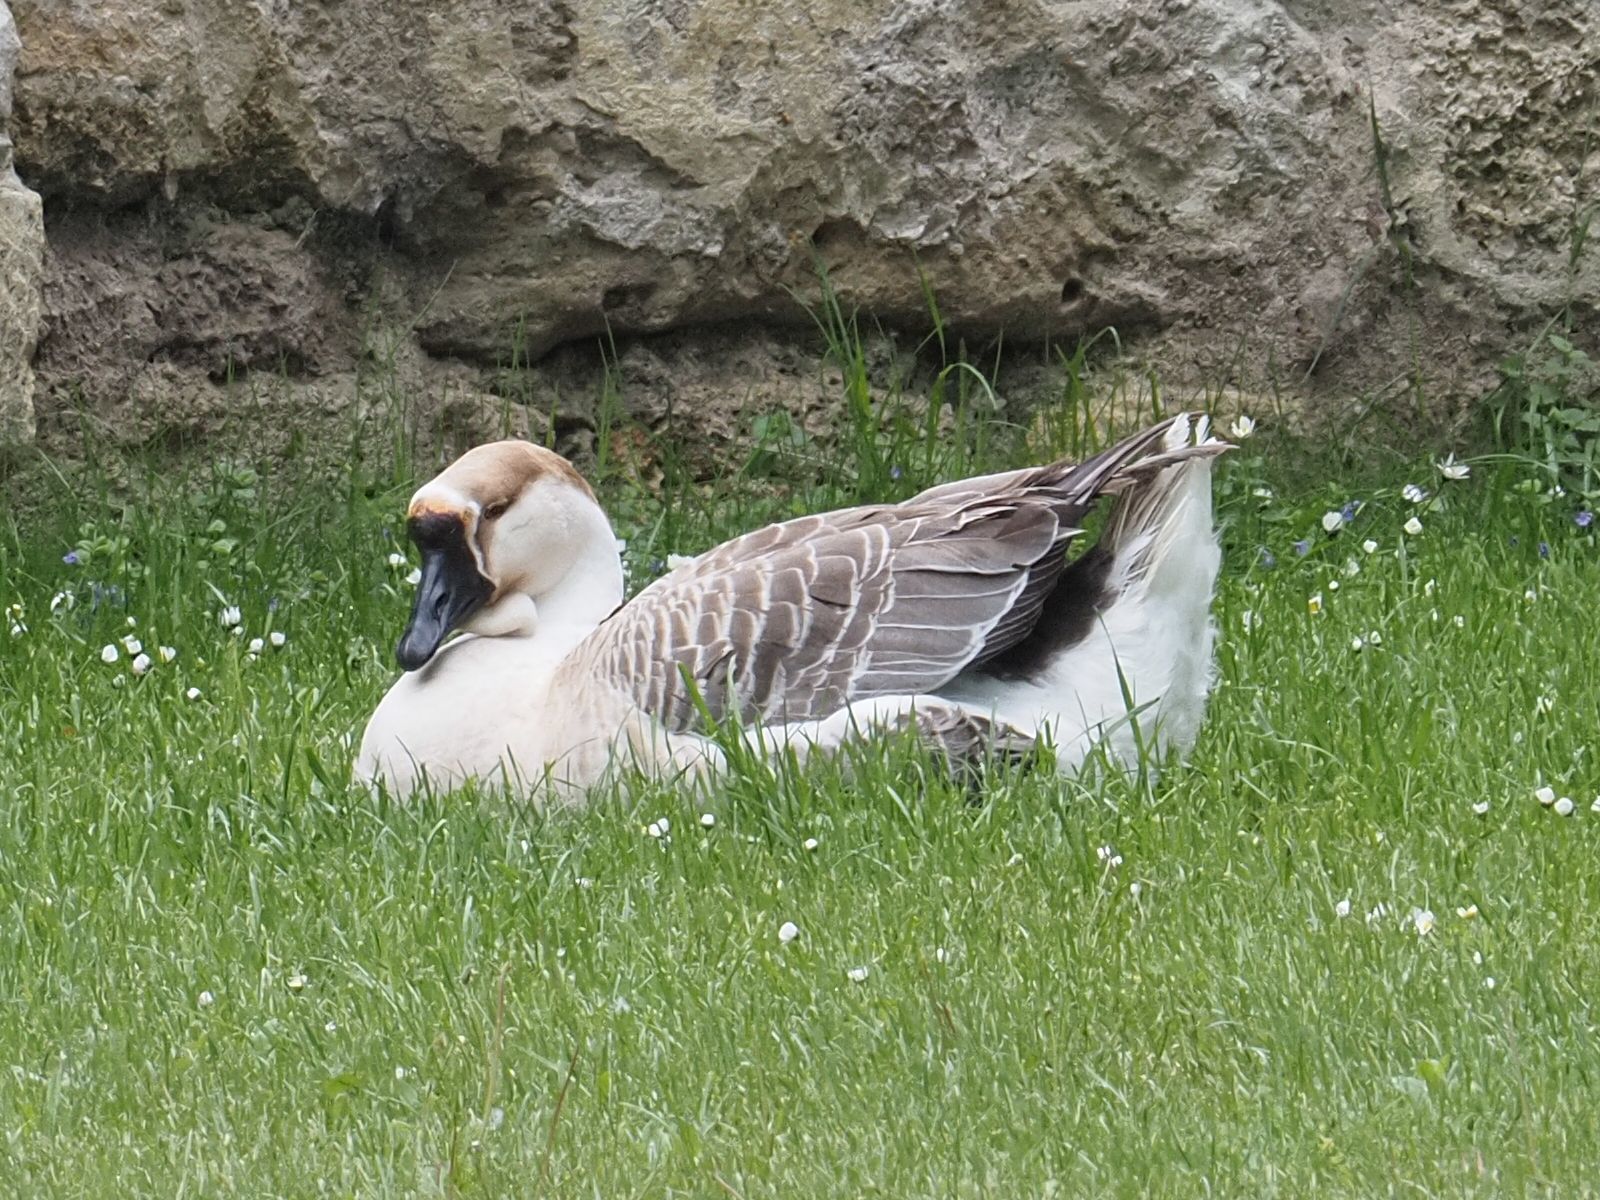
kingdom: Animalia
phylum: Chordata
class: Aves
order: Anseriformes
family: Anatidae
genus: Anser
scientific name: Anser cygnoides
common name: Swan goose
